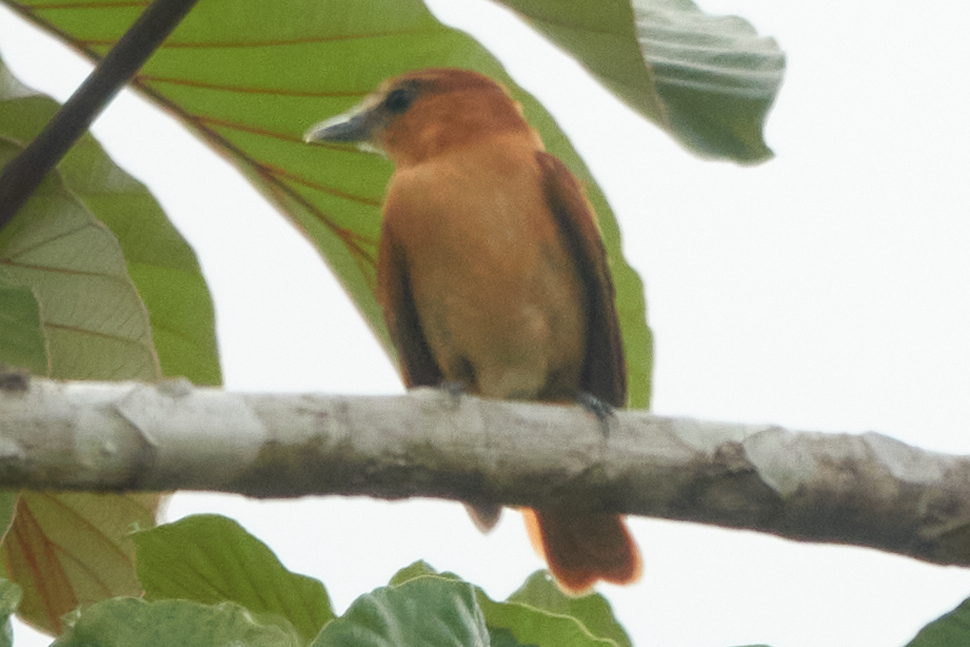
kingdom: Animalia
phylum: Chordata
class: Aves
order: Passeriformes
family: Cotingidae
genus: Pachyramphus
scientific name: Pachyramphus cinnamomeus
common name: Cinnamon becard
